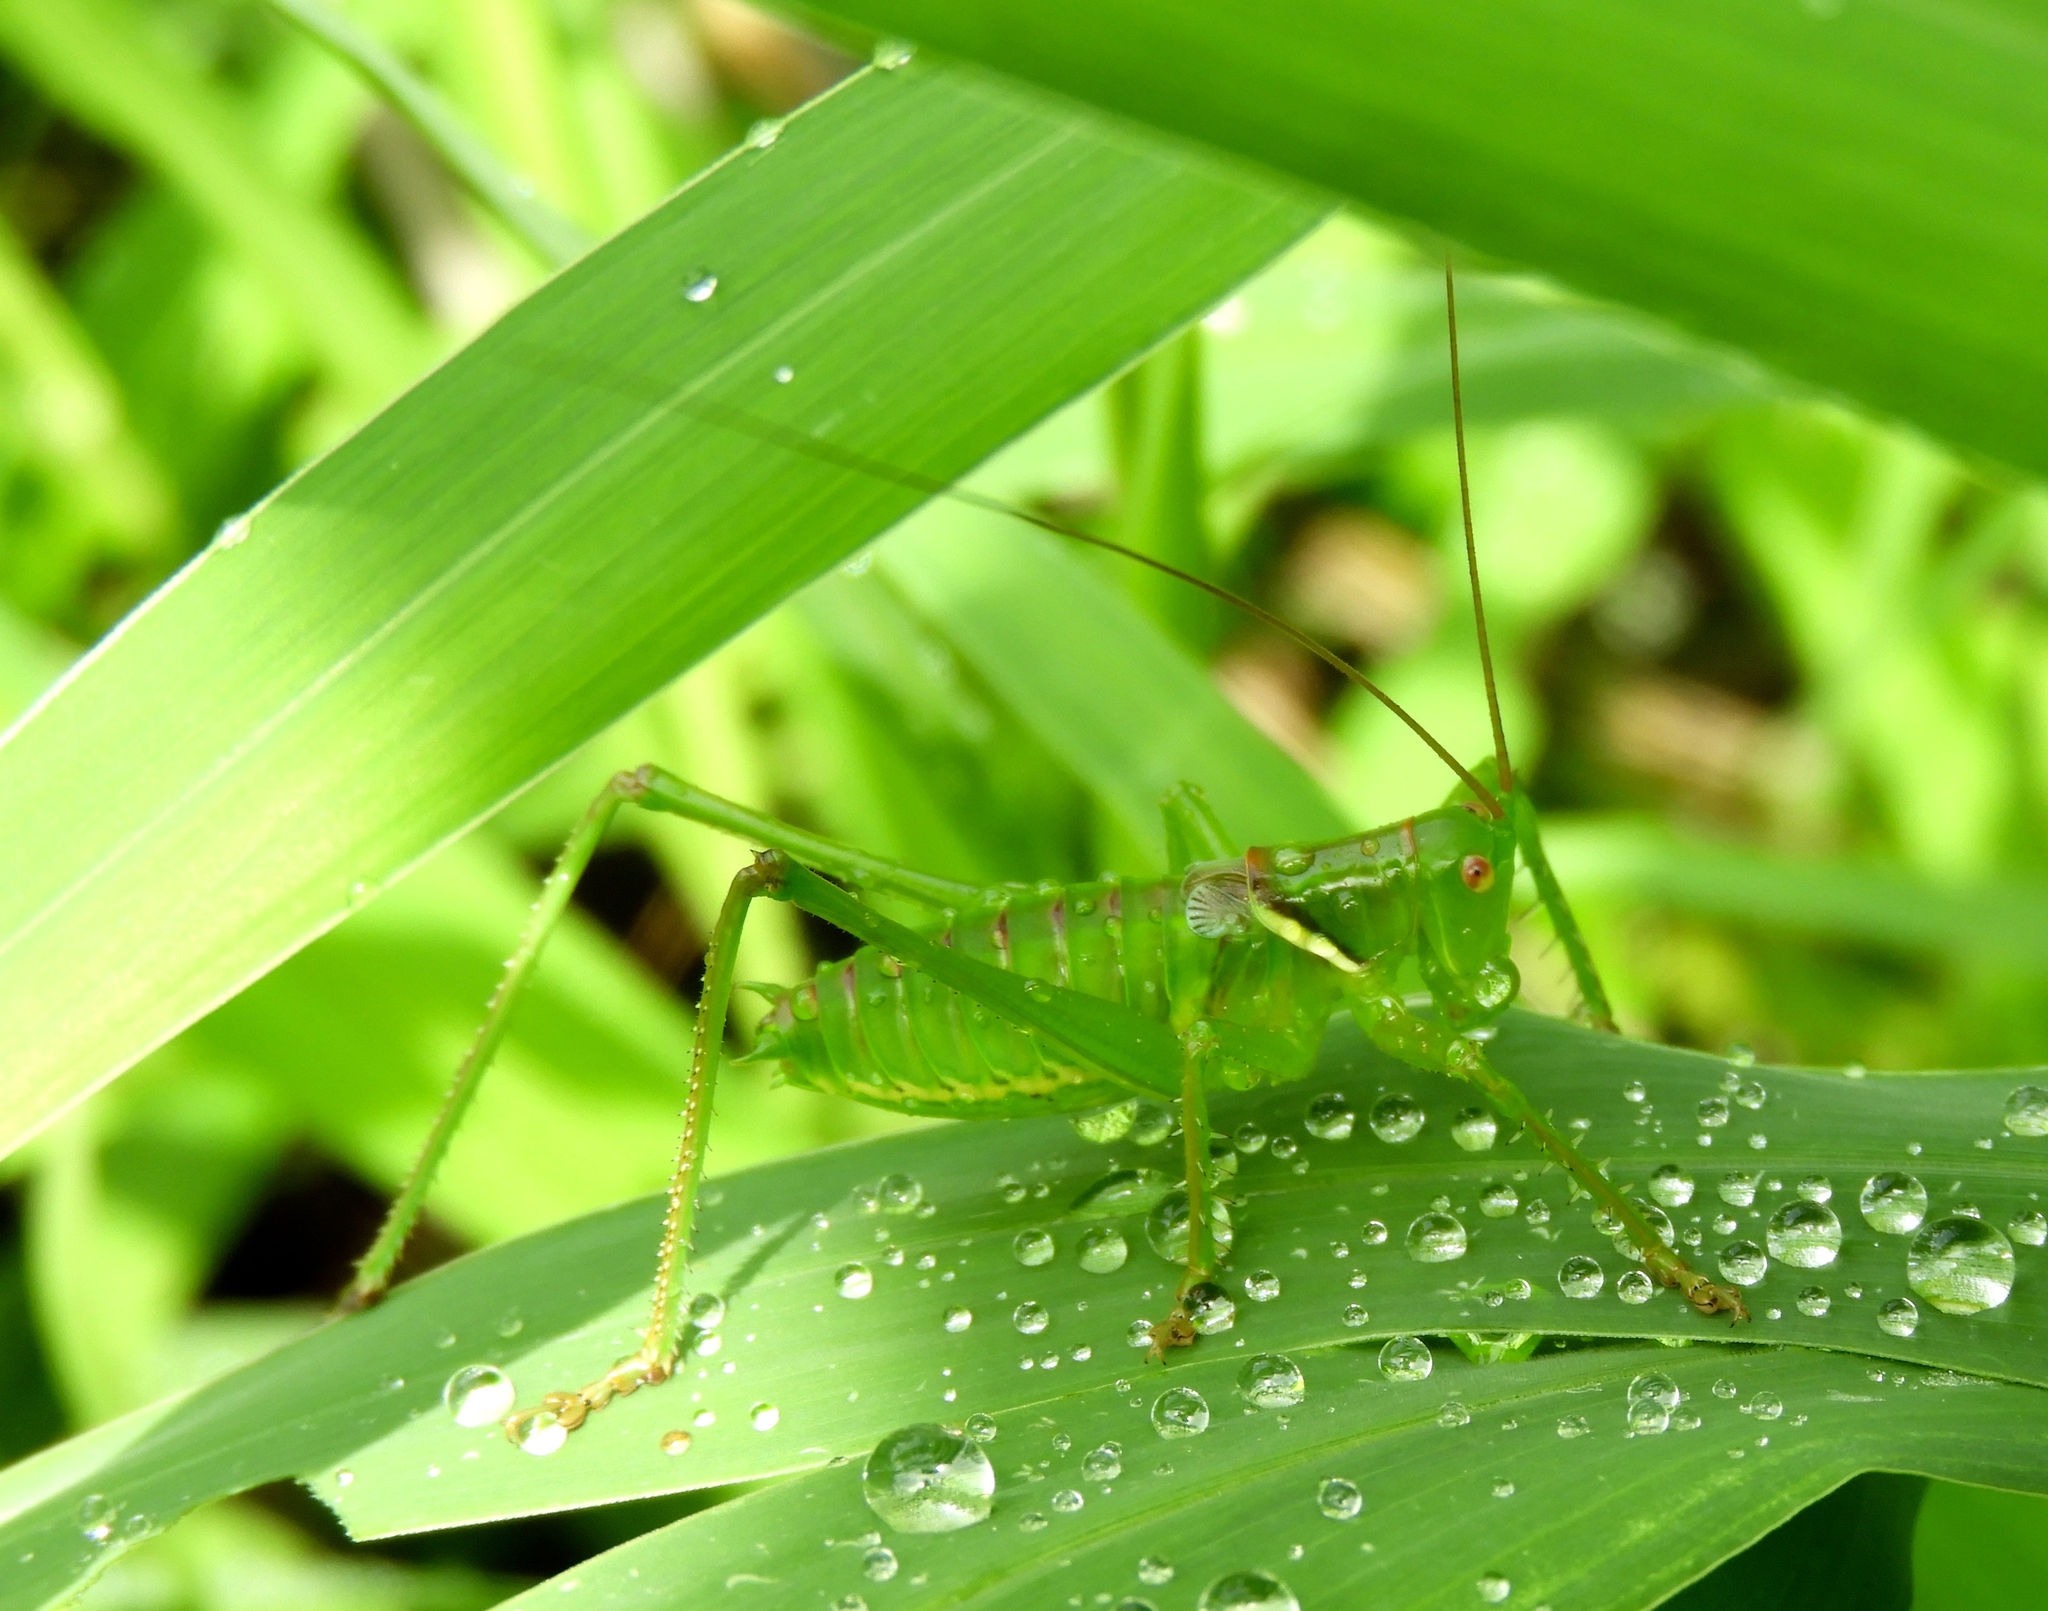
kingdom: Animalia
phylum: Arthropoda
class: Insecta
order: Orthoptera
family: Tettigoniidae
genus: Neobarrettia
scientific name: Neobarrettia sinaloae
